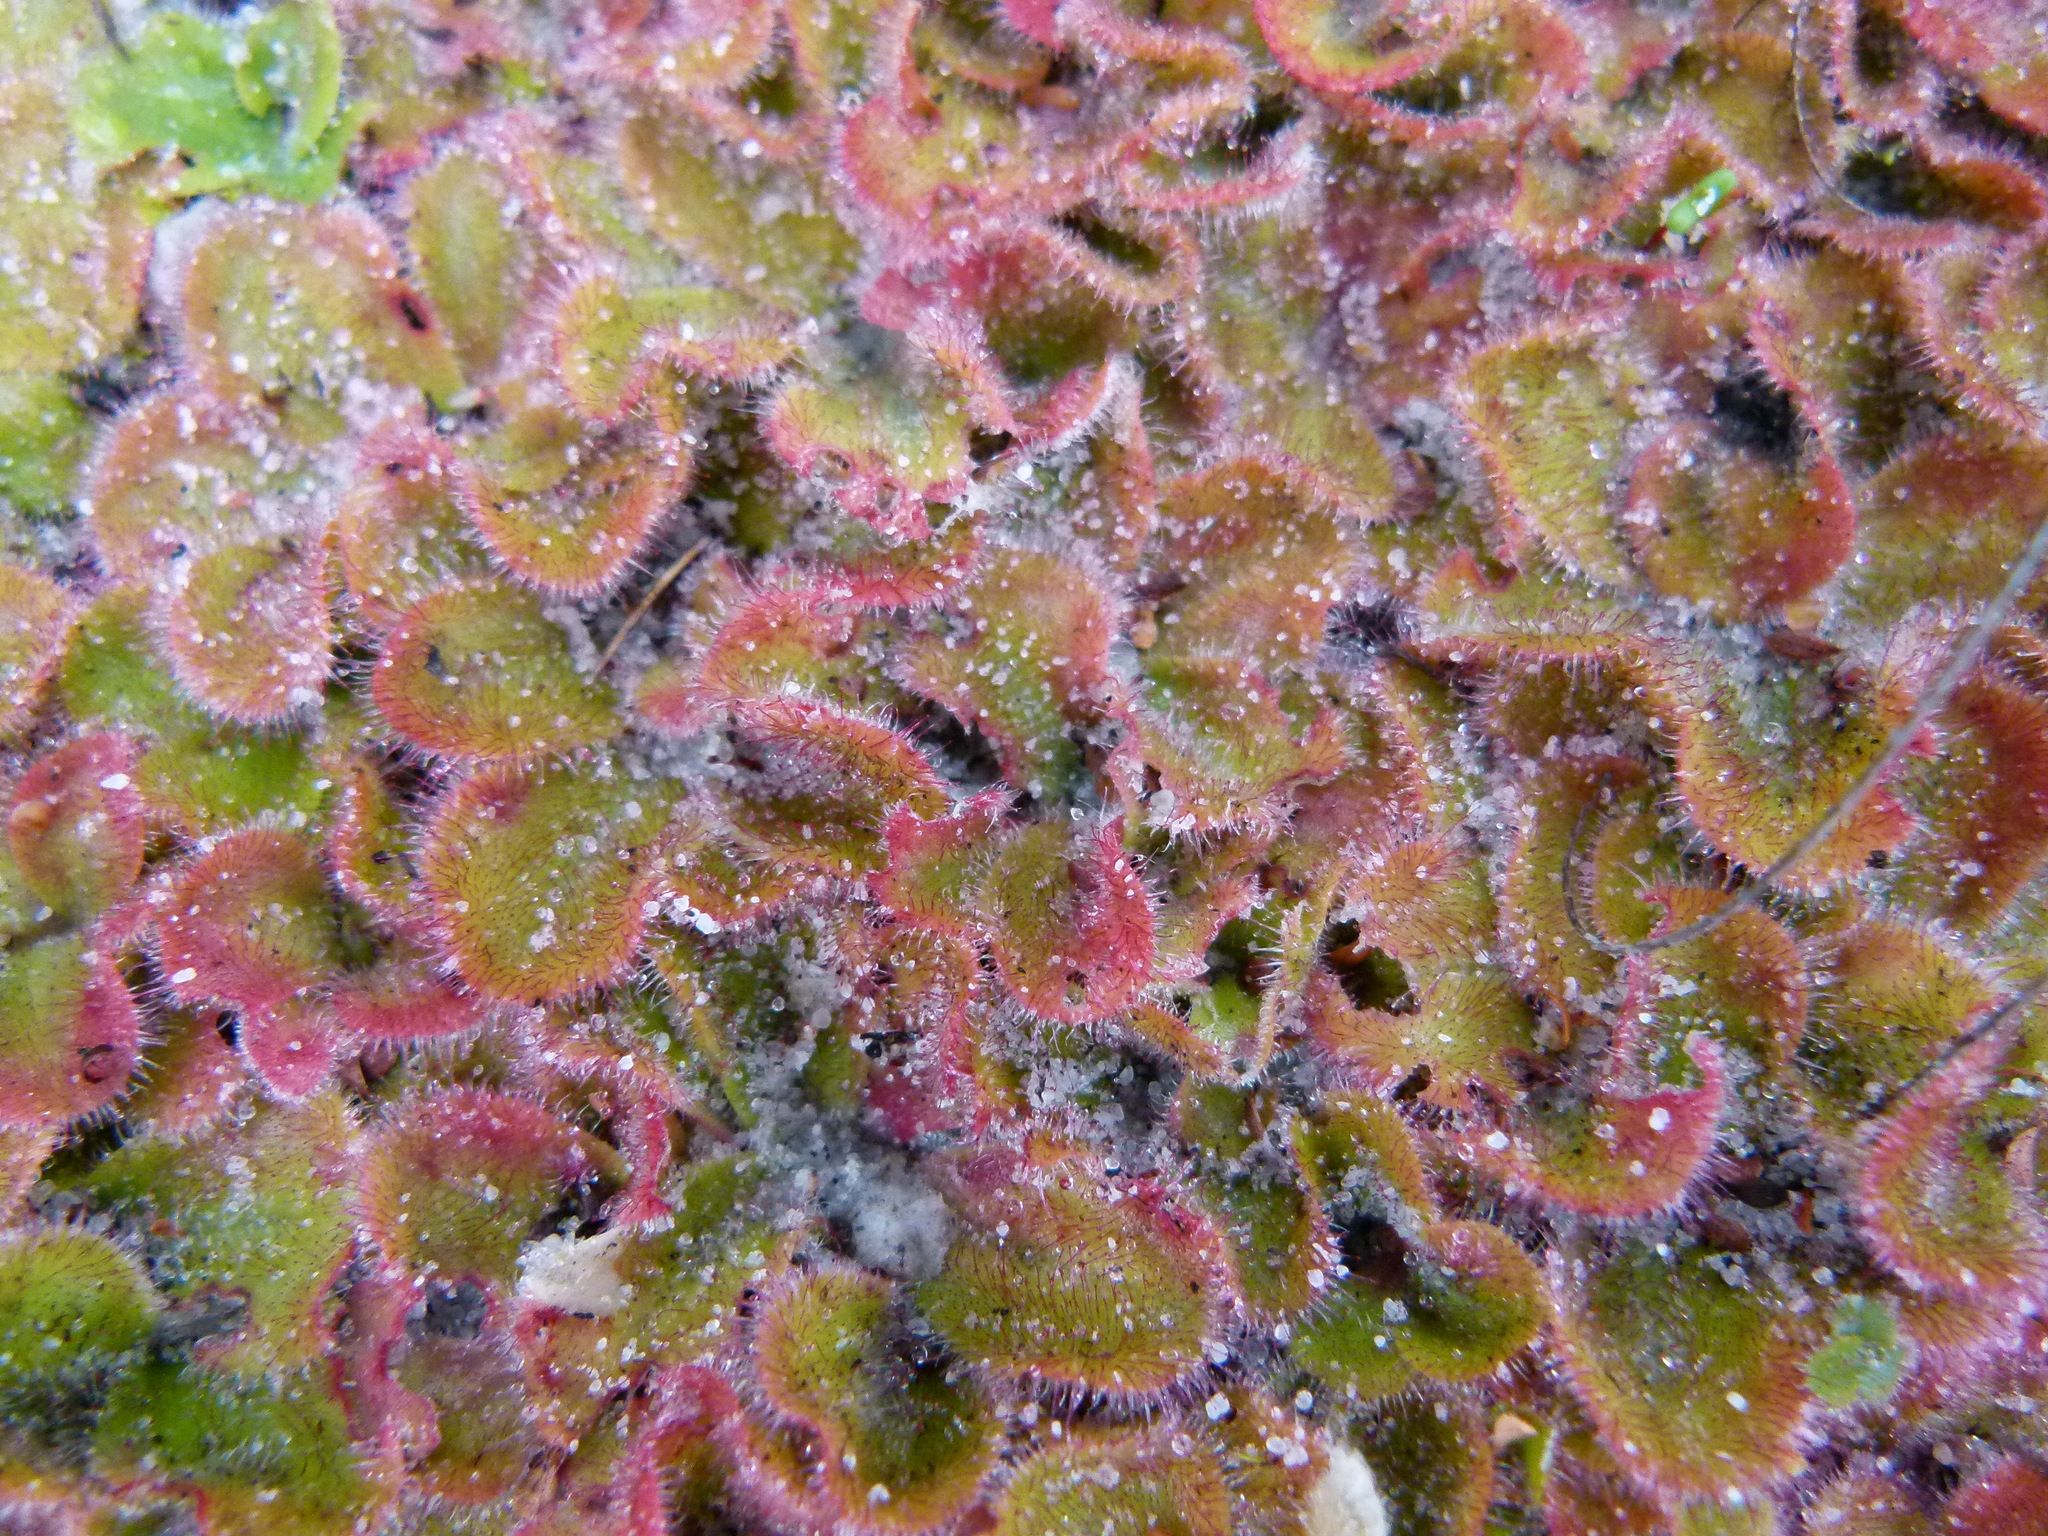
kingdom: Plantae
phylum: Tracheophyta
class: Magnoliopsida
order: Caryophyllales
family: Droseraceae
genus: Drosera
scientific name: Drosera erythrorhiza
